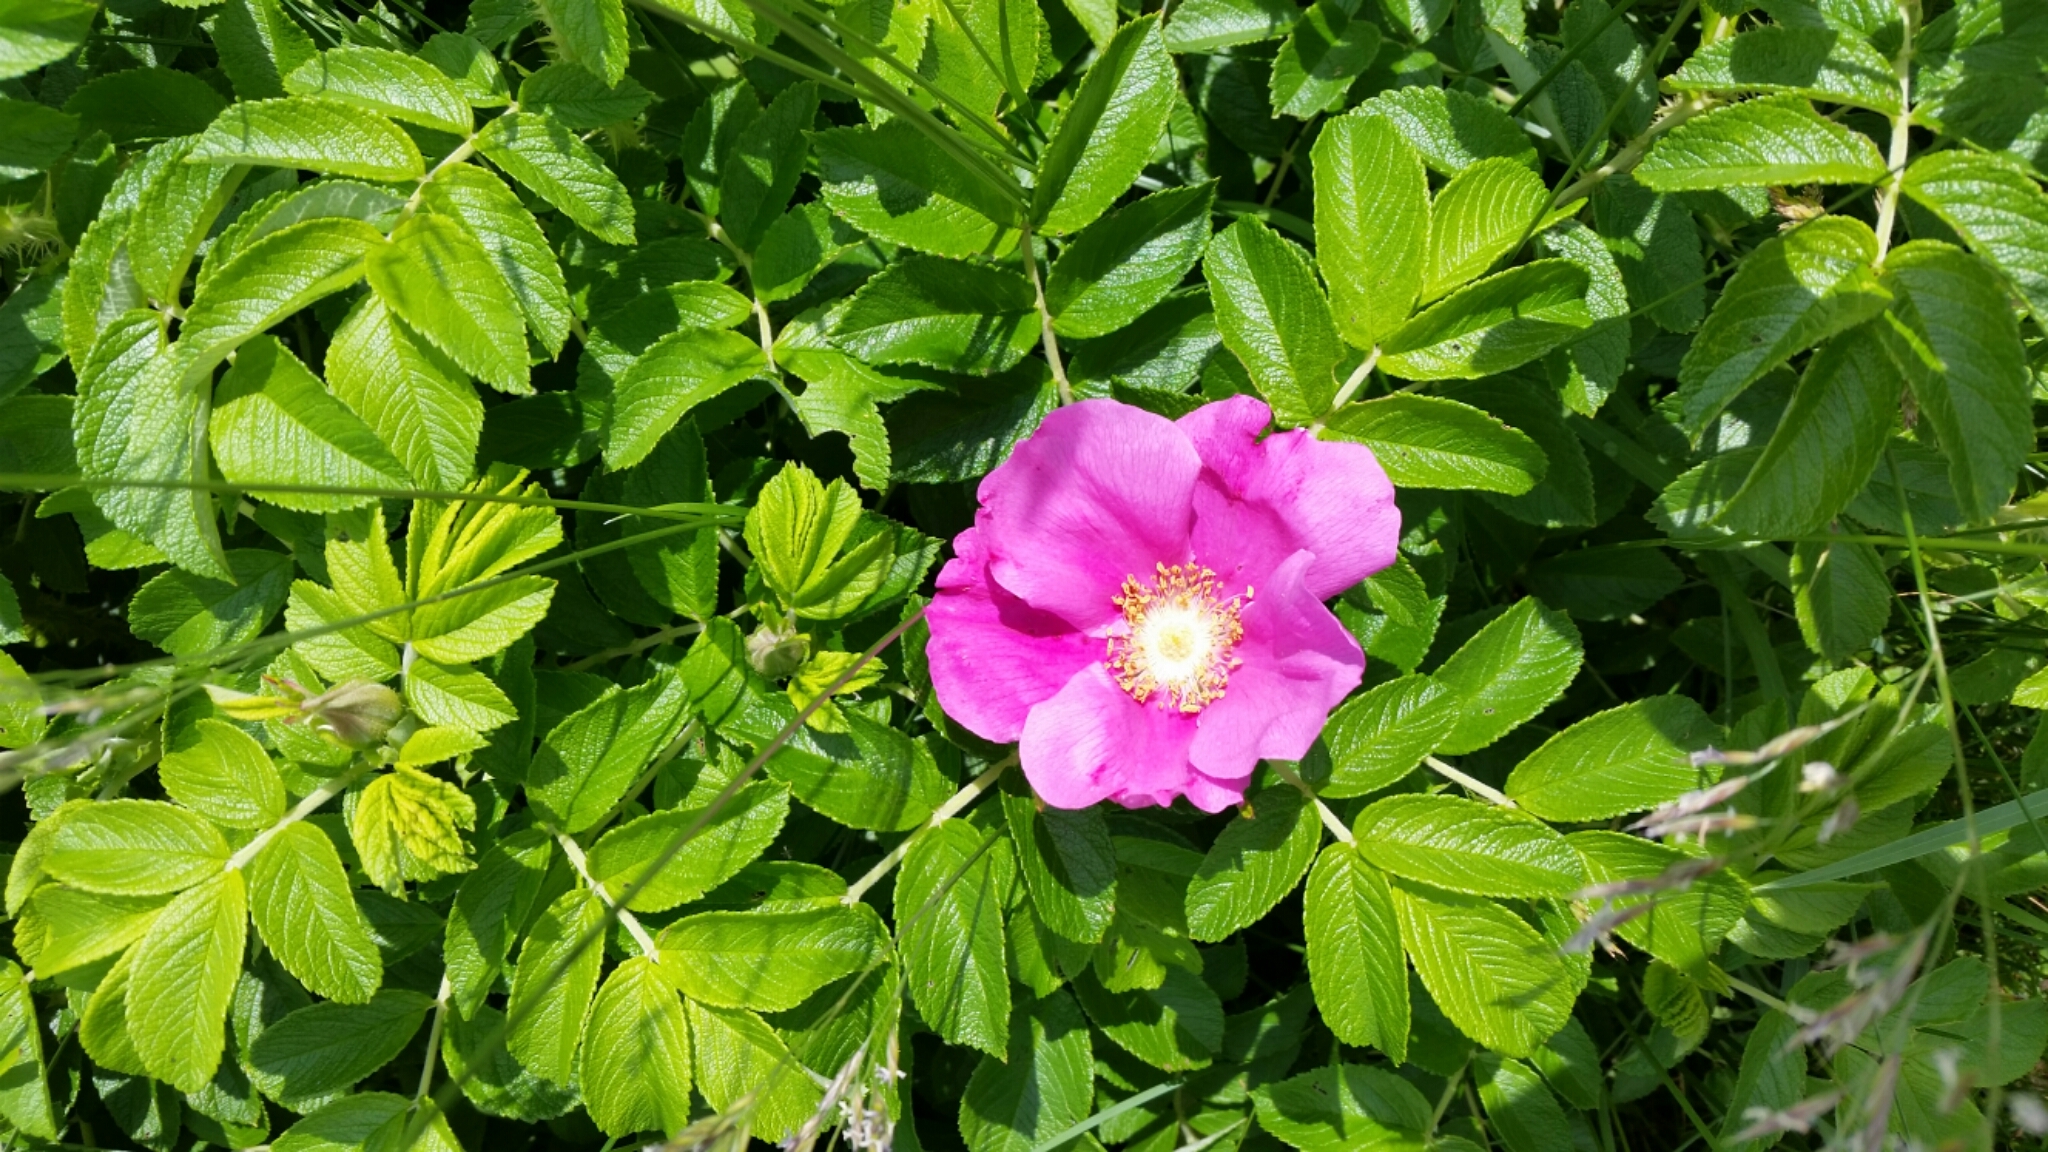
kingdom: Plantae
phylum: Tracheophyta
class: Magnoliopsida
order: Rosales
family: Rosaceae
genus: Rosa
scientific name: Rosa rugosa
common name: Japanese rose
